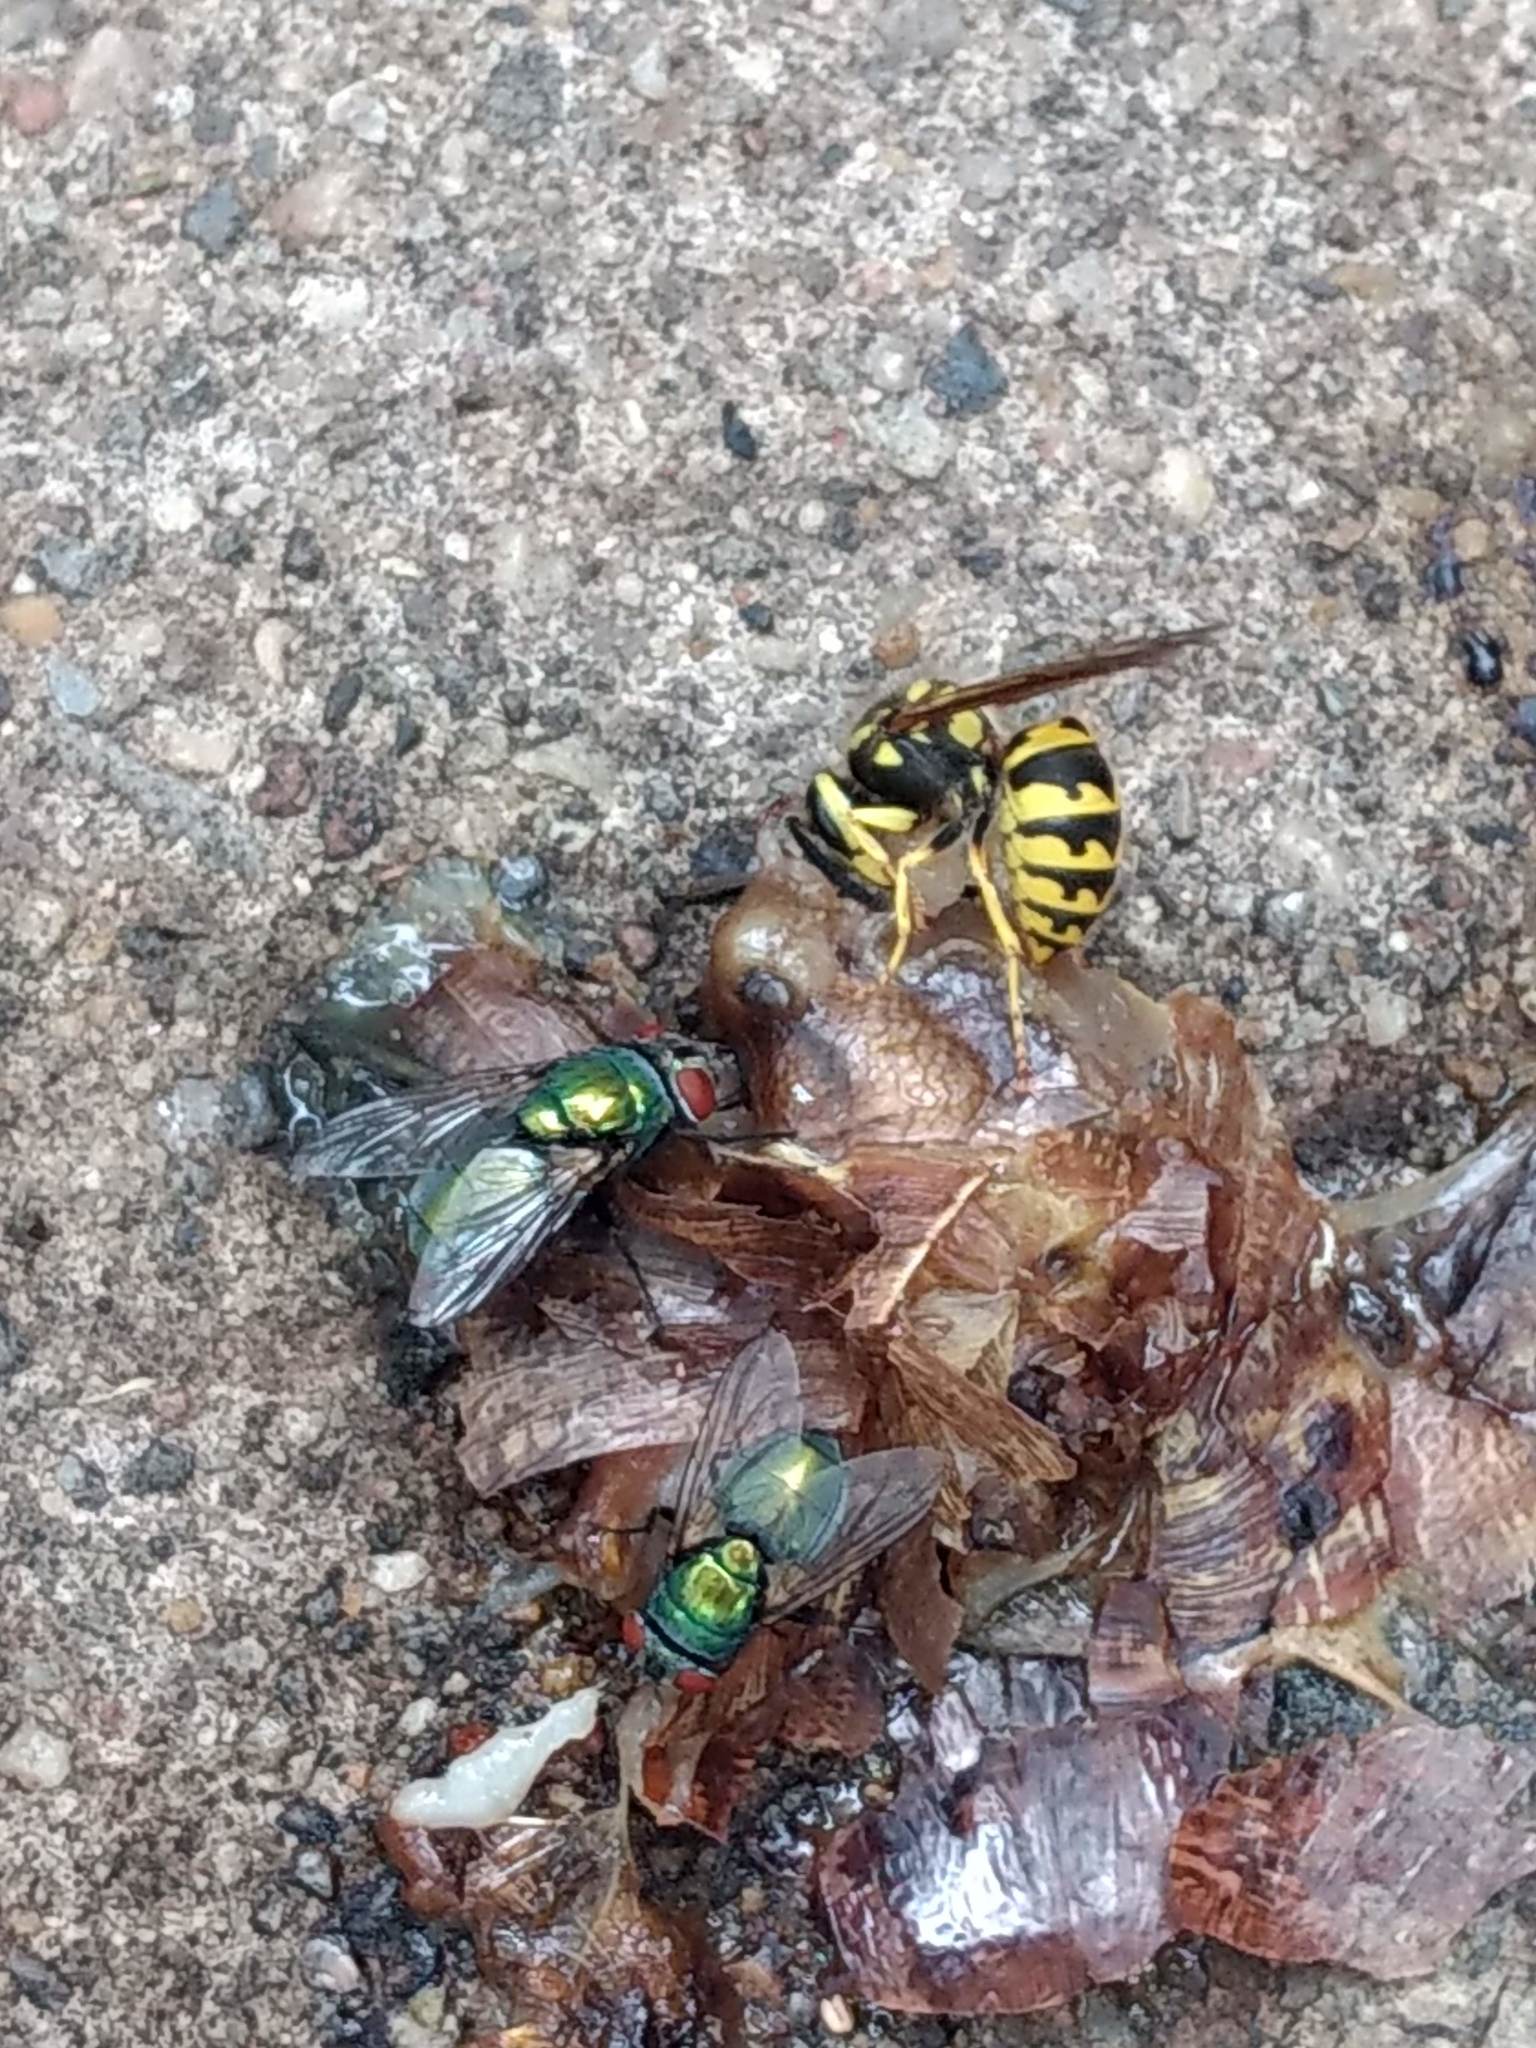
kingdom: Animalia
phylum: Arthropoda
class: Insecta
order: Hymenoptera
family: Vespidae
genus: Vespula
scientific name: Vespula pensylvanica
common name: Western yellowjacket
